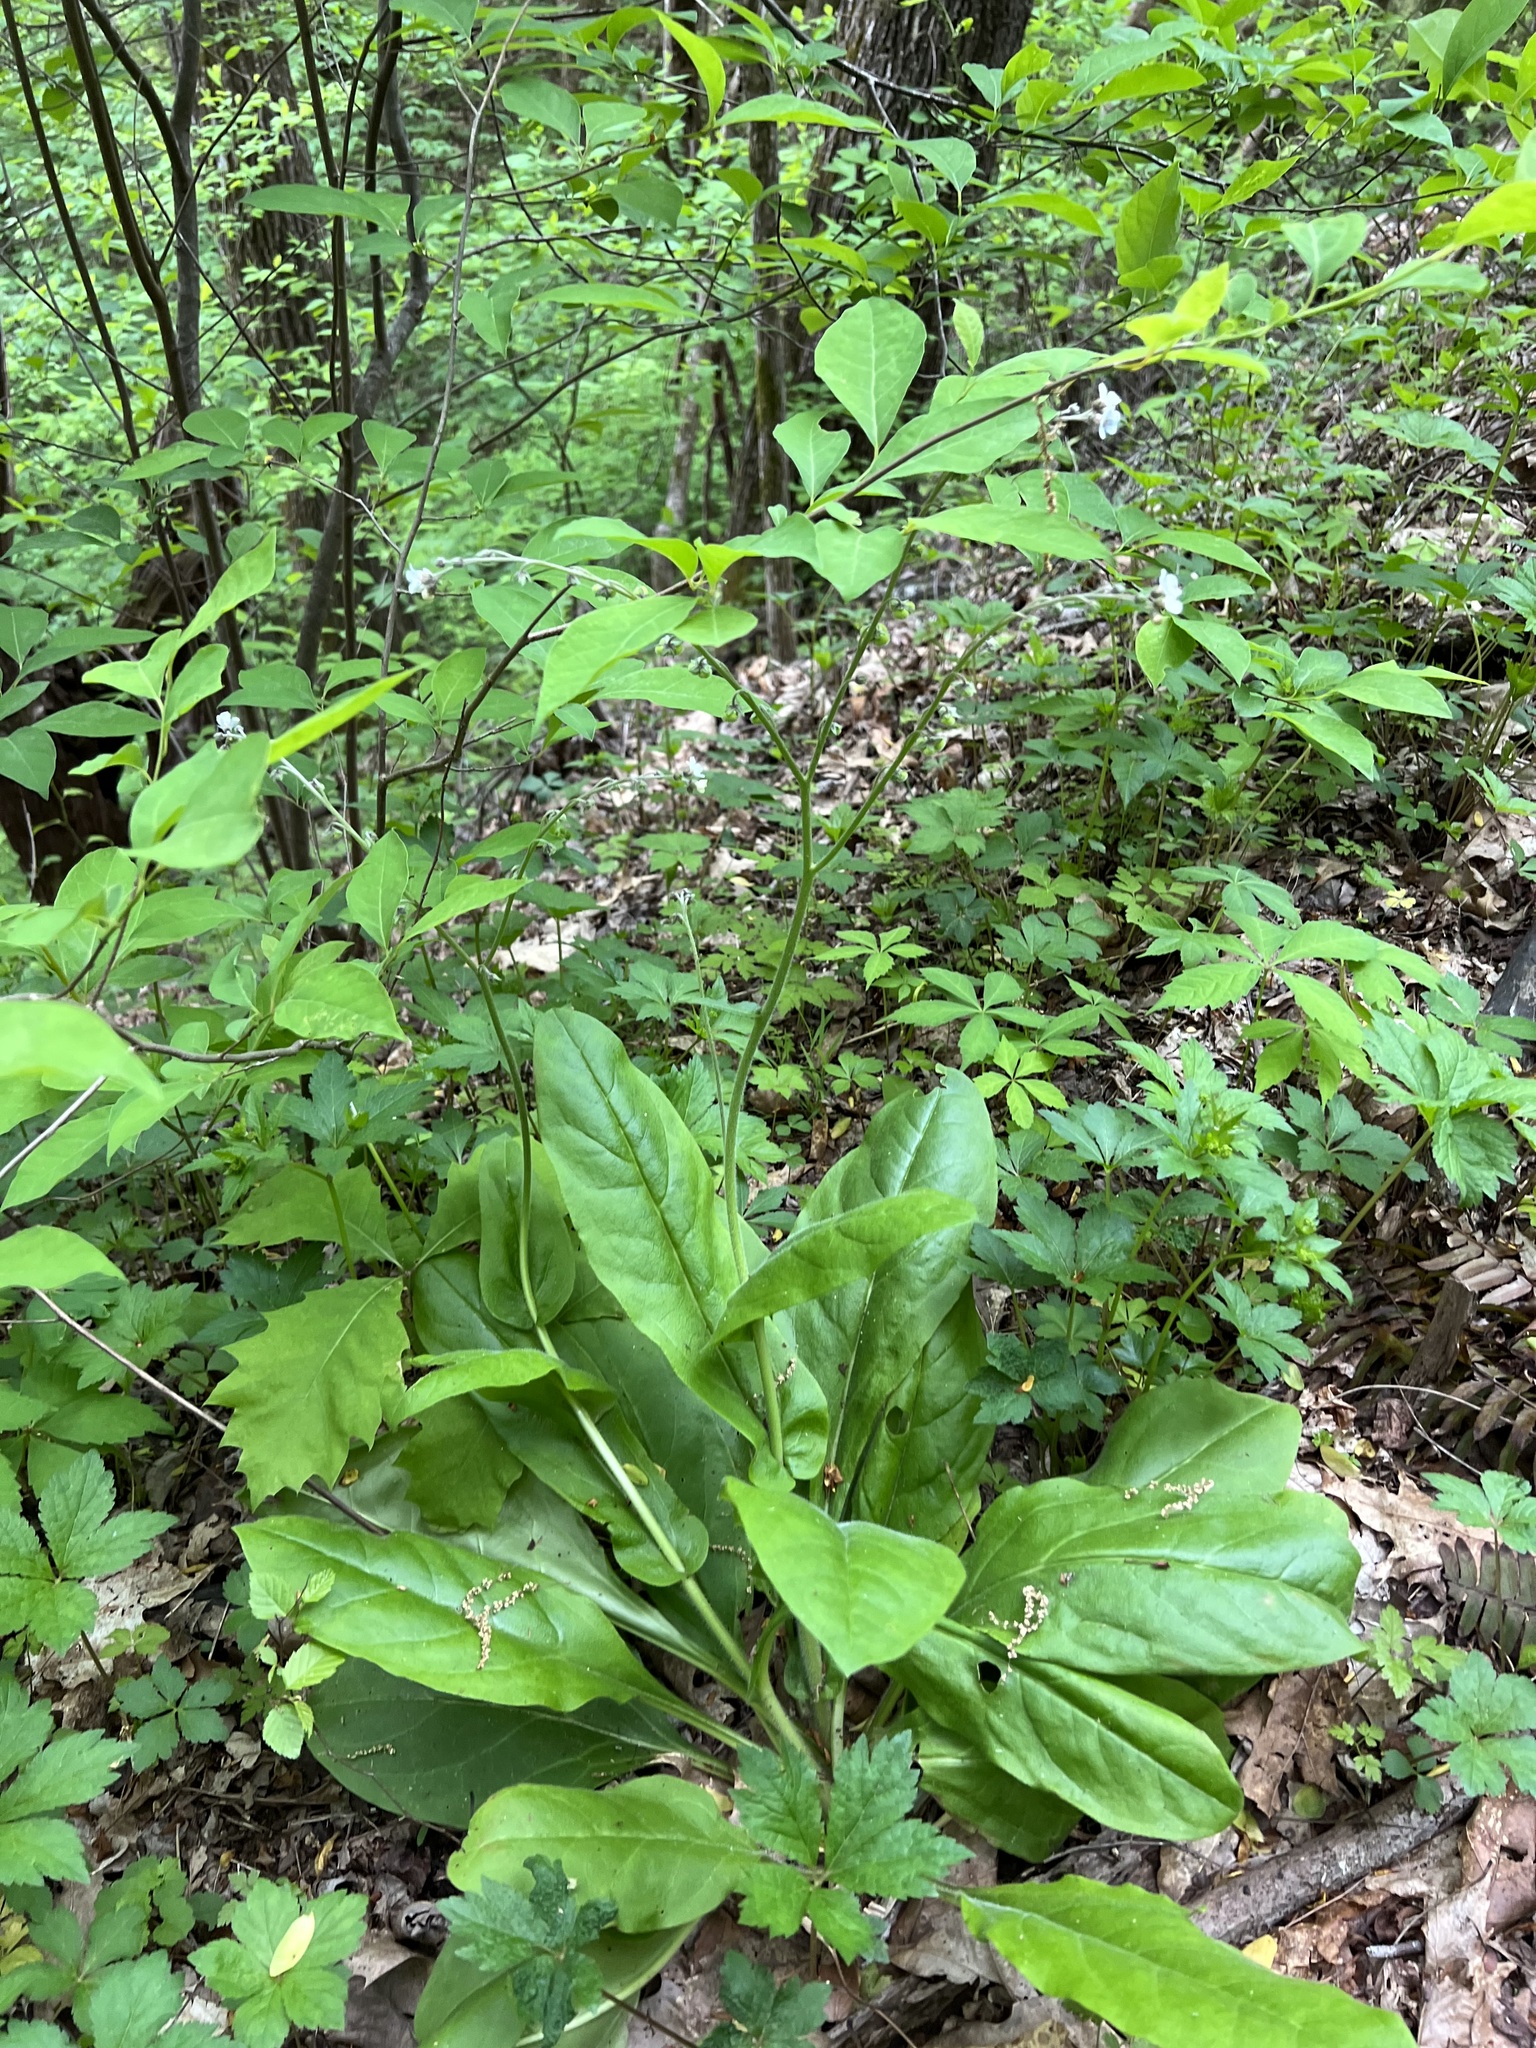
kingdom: Plantae
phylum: Tracheophyta
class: Magnoliopsida
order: Boraginales
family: Boraginaceae
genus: Andersonglossum
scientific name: Andersonglossum virginianum
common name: Wild comfrey
